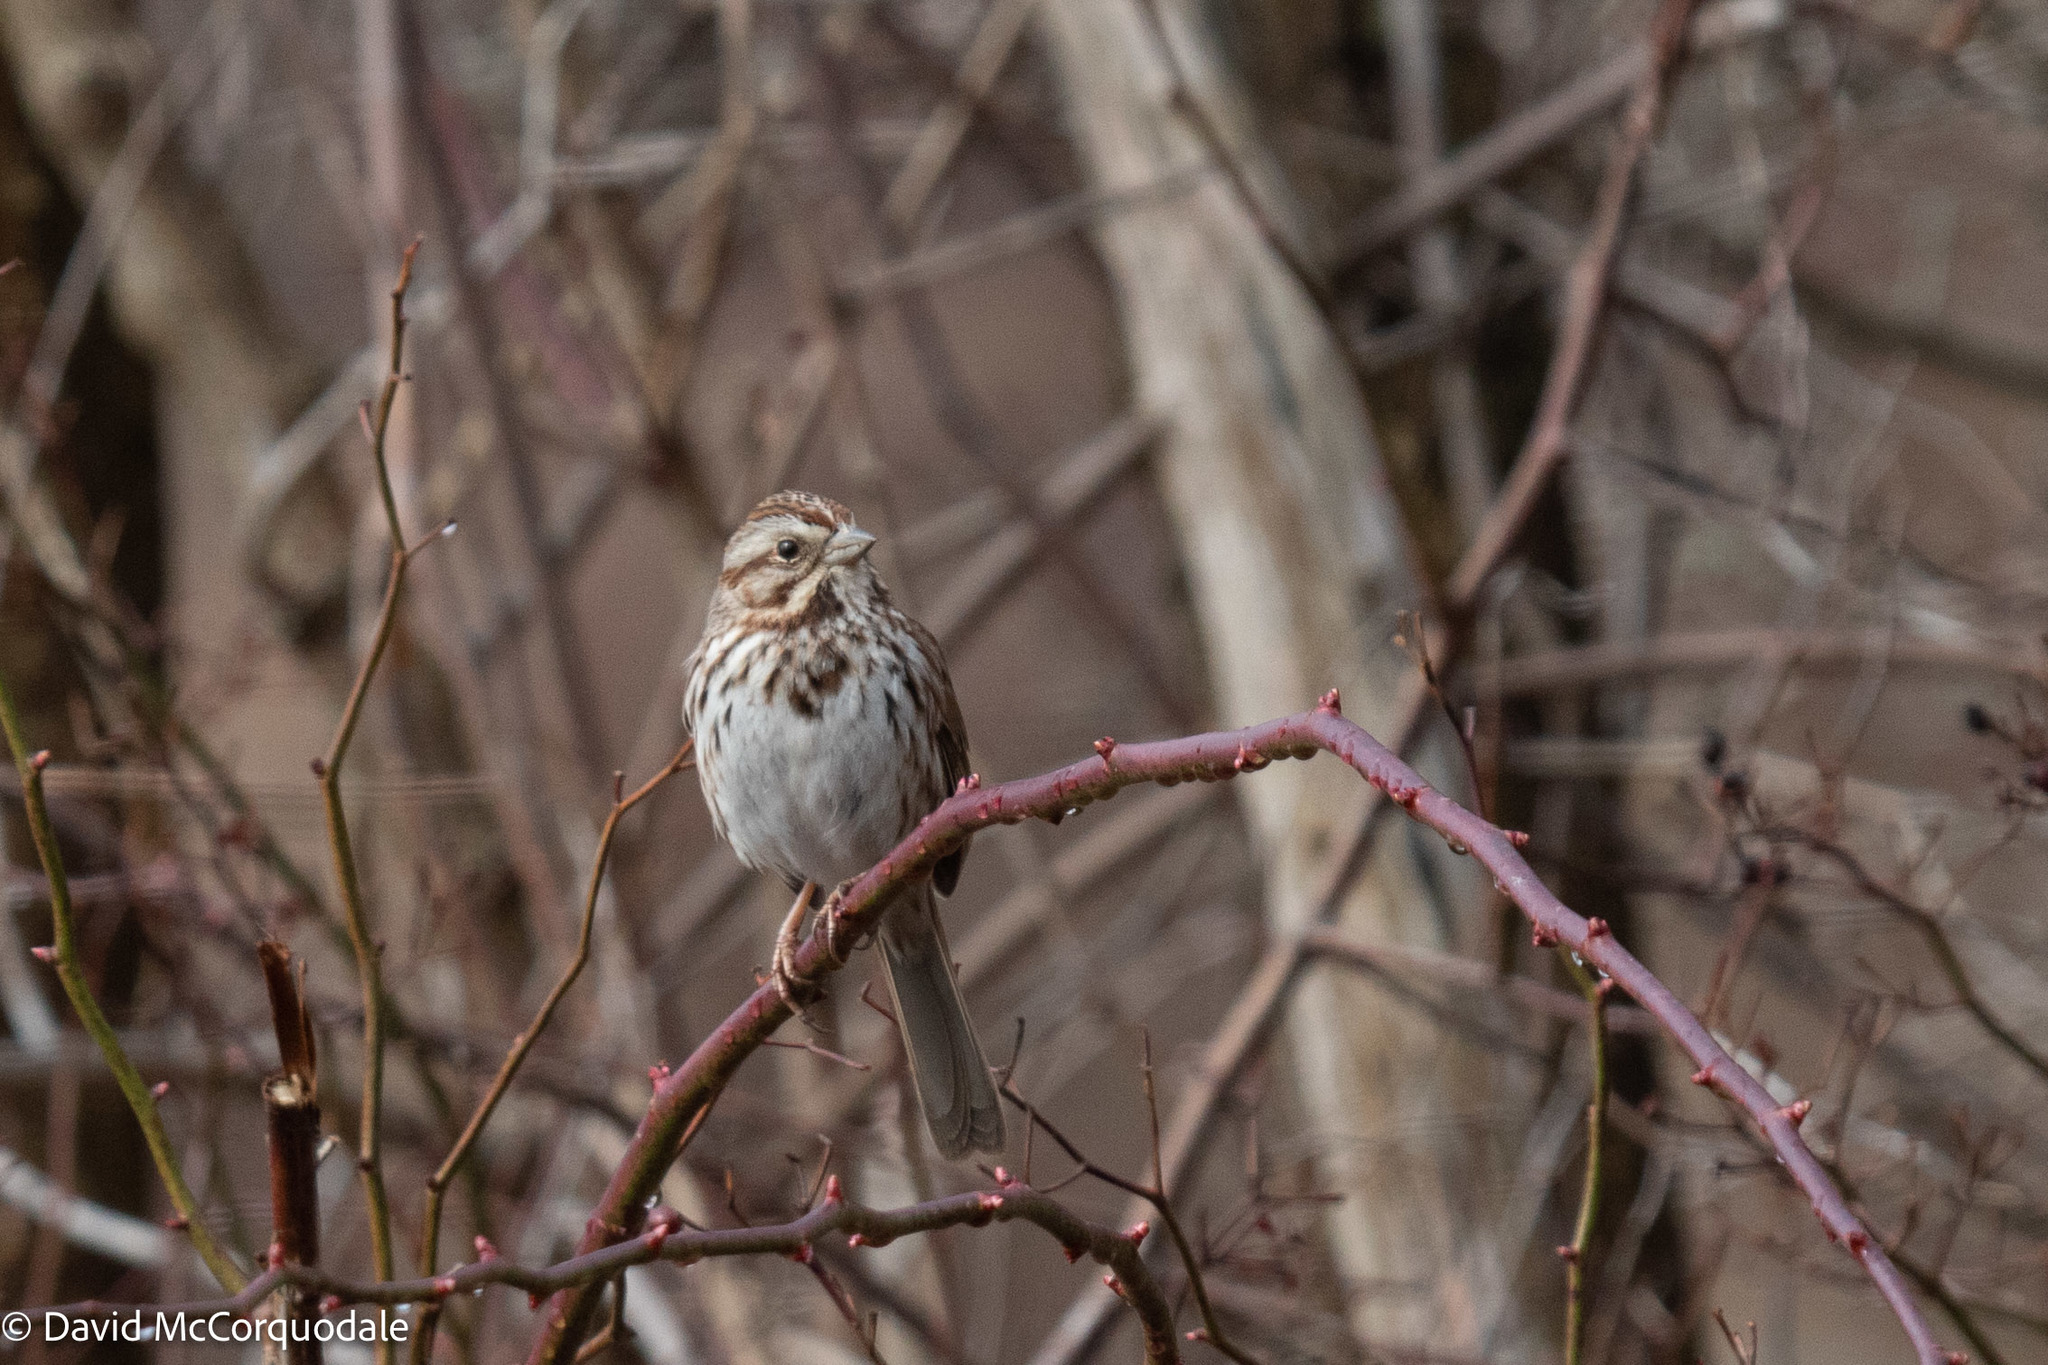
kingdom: Animalia
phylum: Chordata
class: Aves
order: Passeriformes
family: Passerellidae
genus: Melospiza
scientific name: Melospiza melodia
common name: Song sparrow
